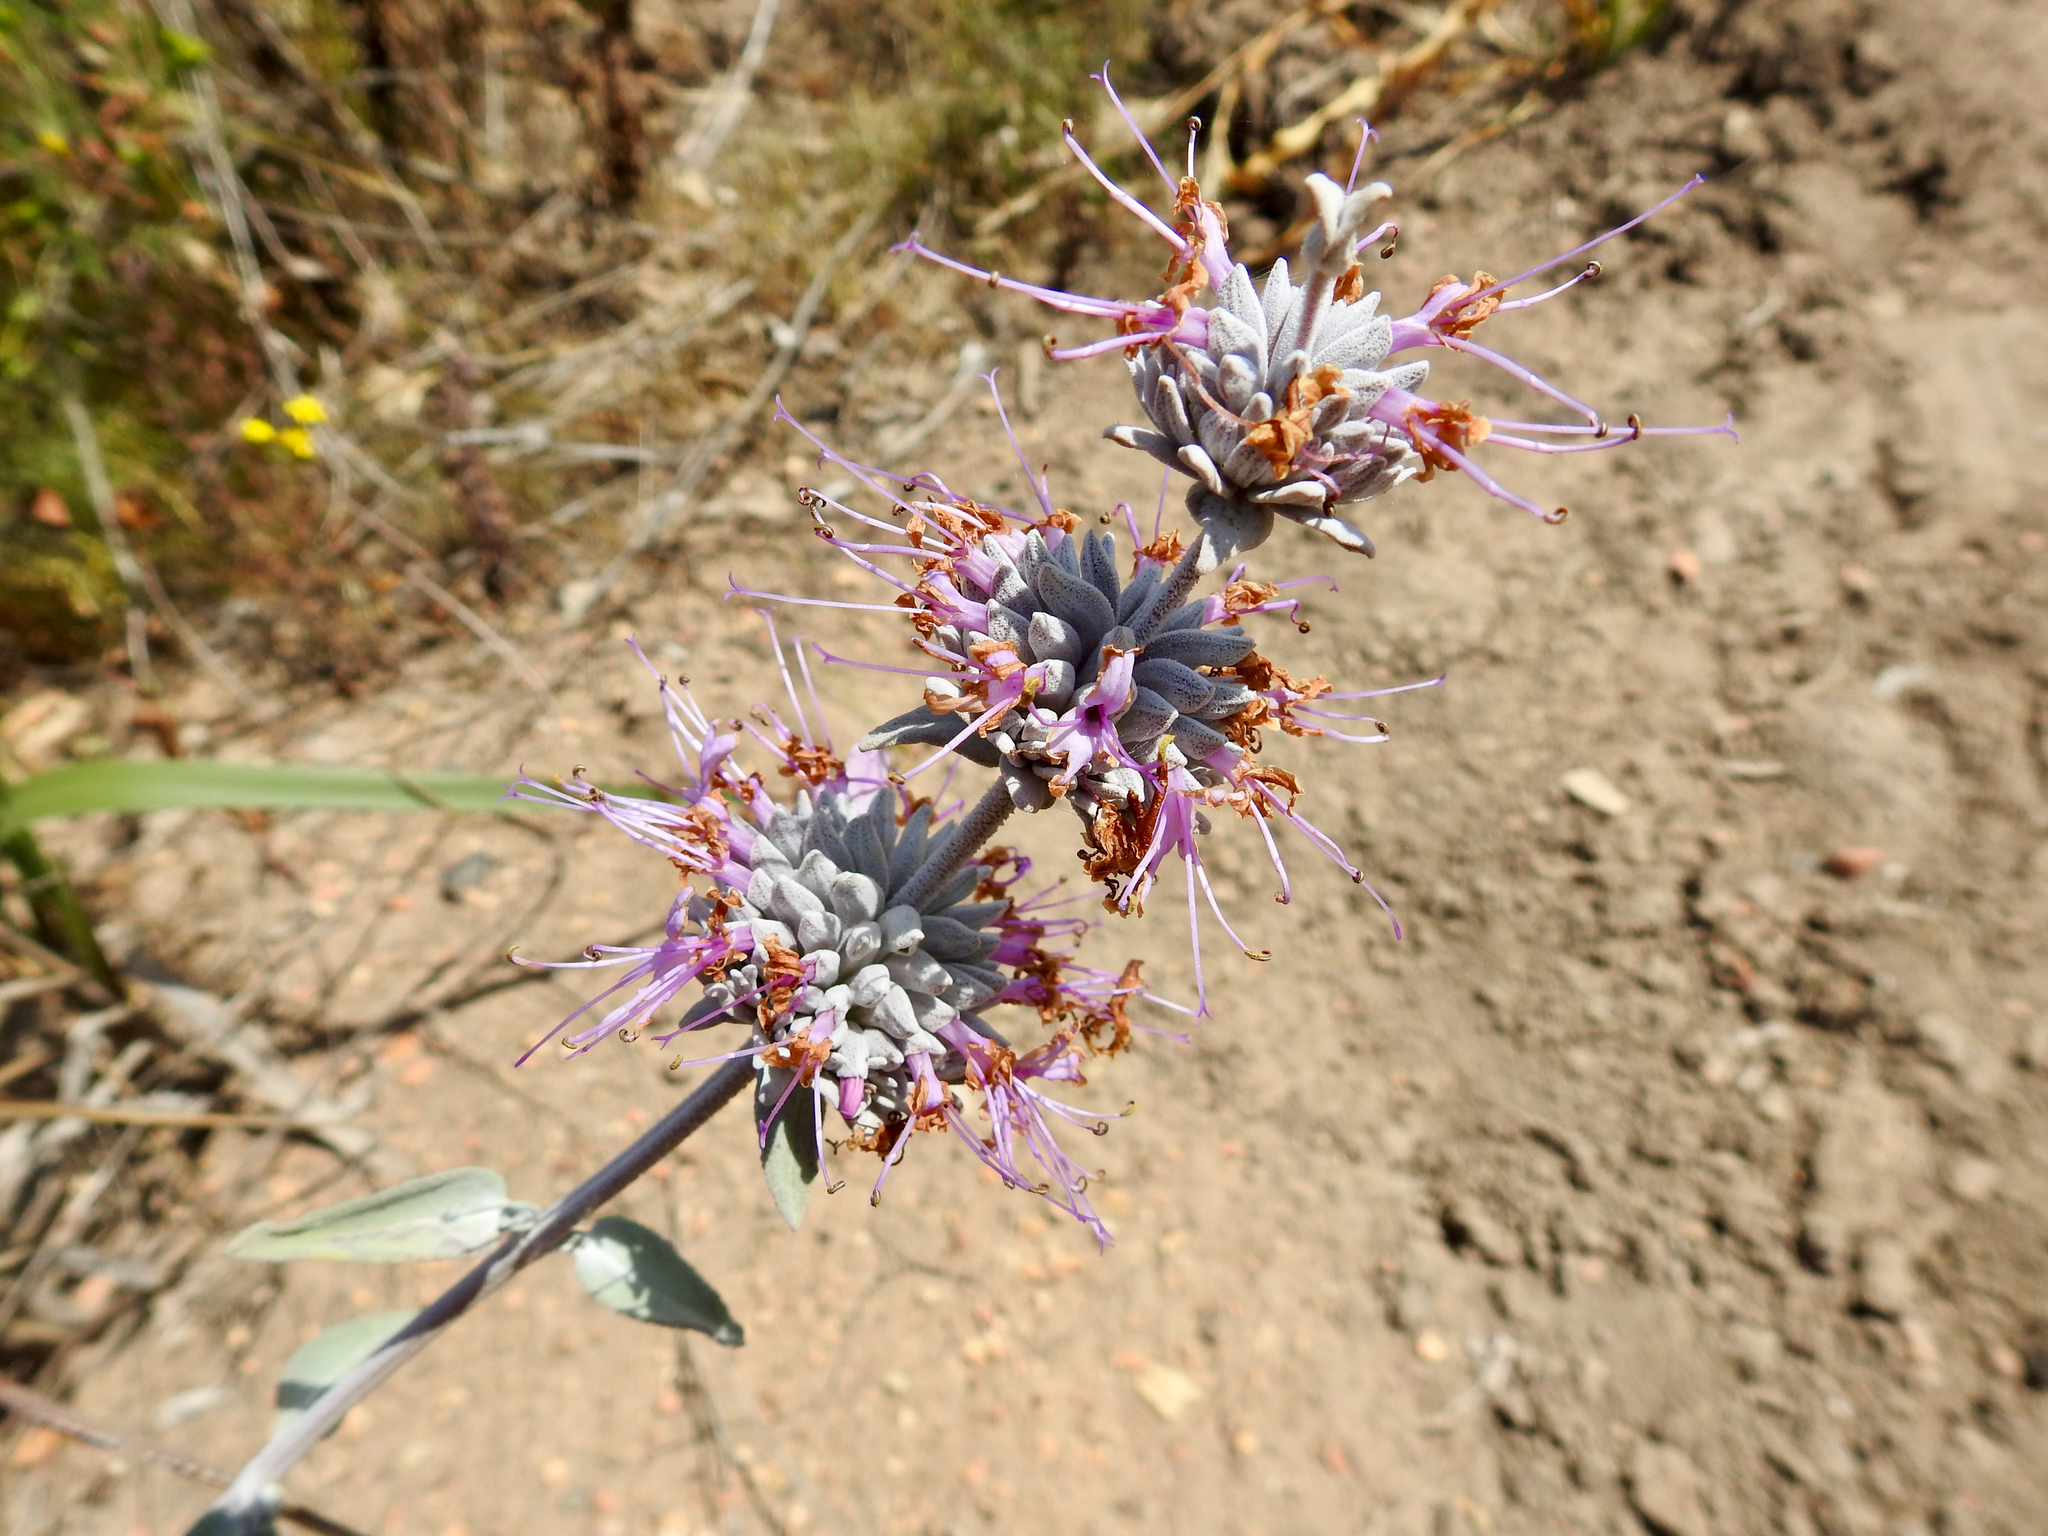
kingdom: Plantae
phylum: Tracheophyta
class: Magnoliopsida
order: Lamiales
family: Lamiaceae
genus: Salvia
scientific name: Salvia leucophylla
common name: Purple sage
